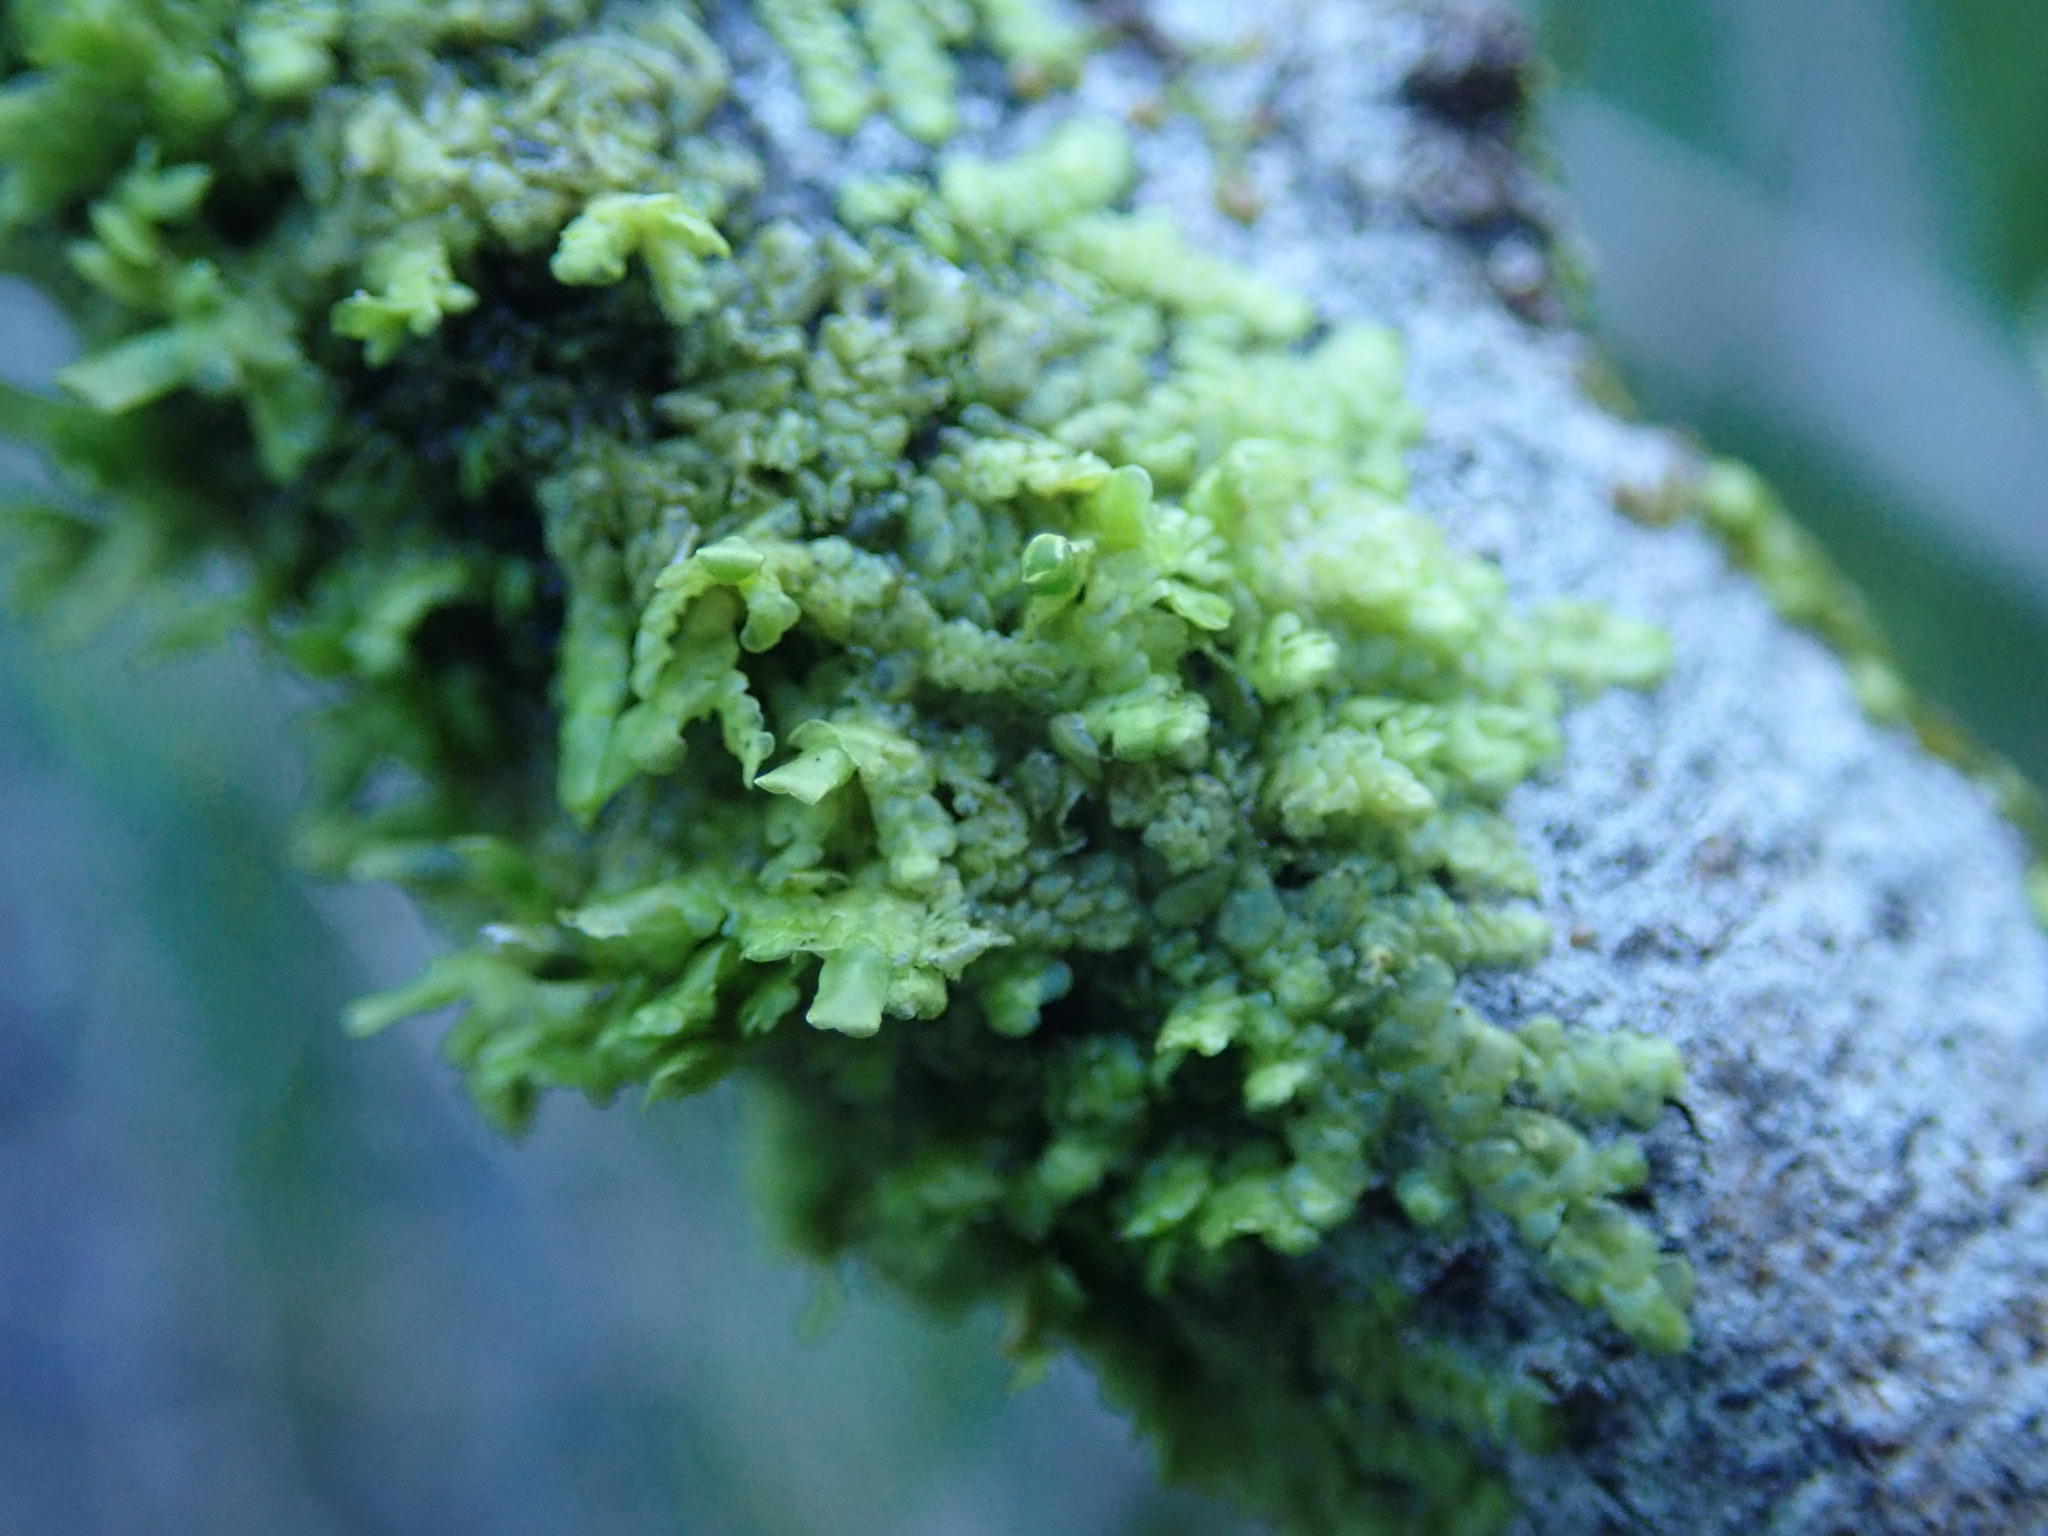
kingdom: Plantae
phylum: Marchantiophyta
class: Jungermanniopsida
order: Porellales
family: Radulaceae
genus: Radula
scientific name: Radula complanata
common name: Flat-leaved scalewort
